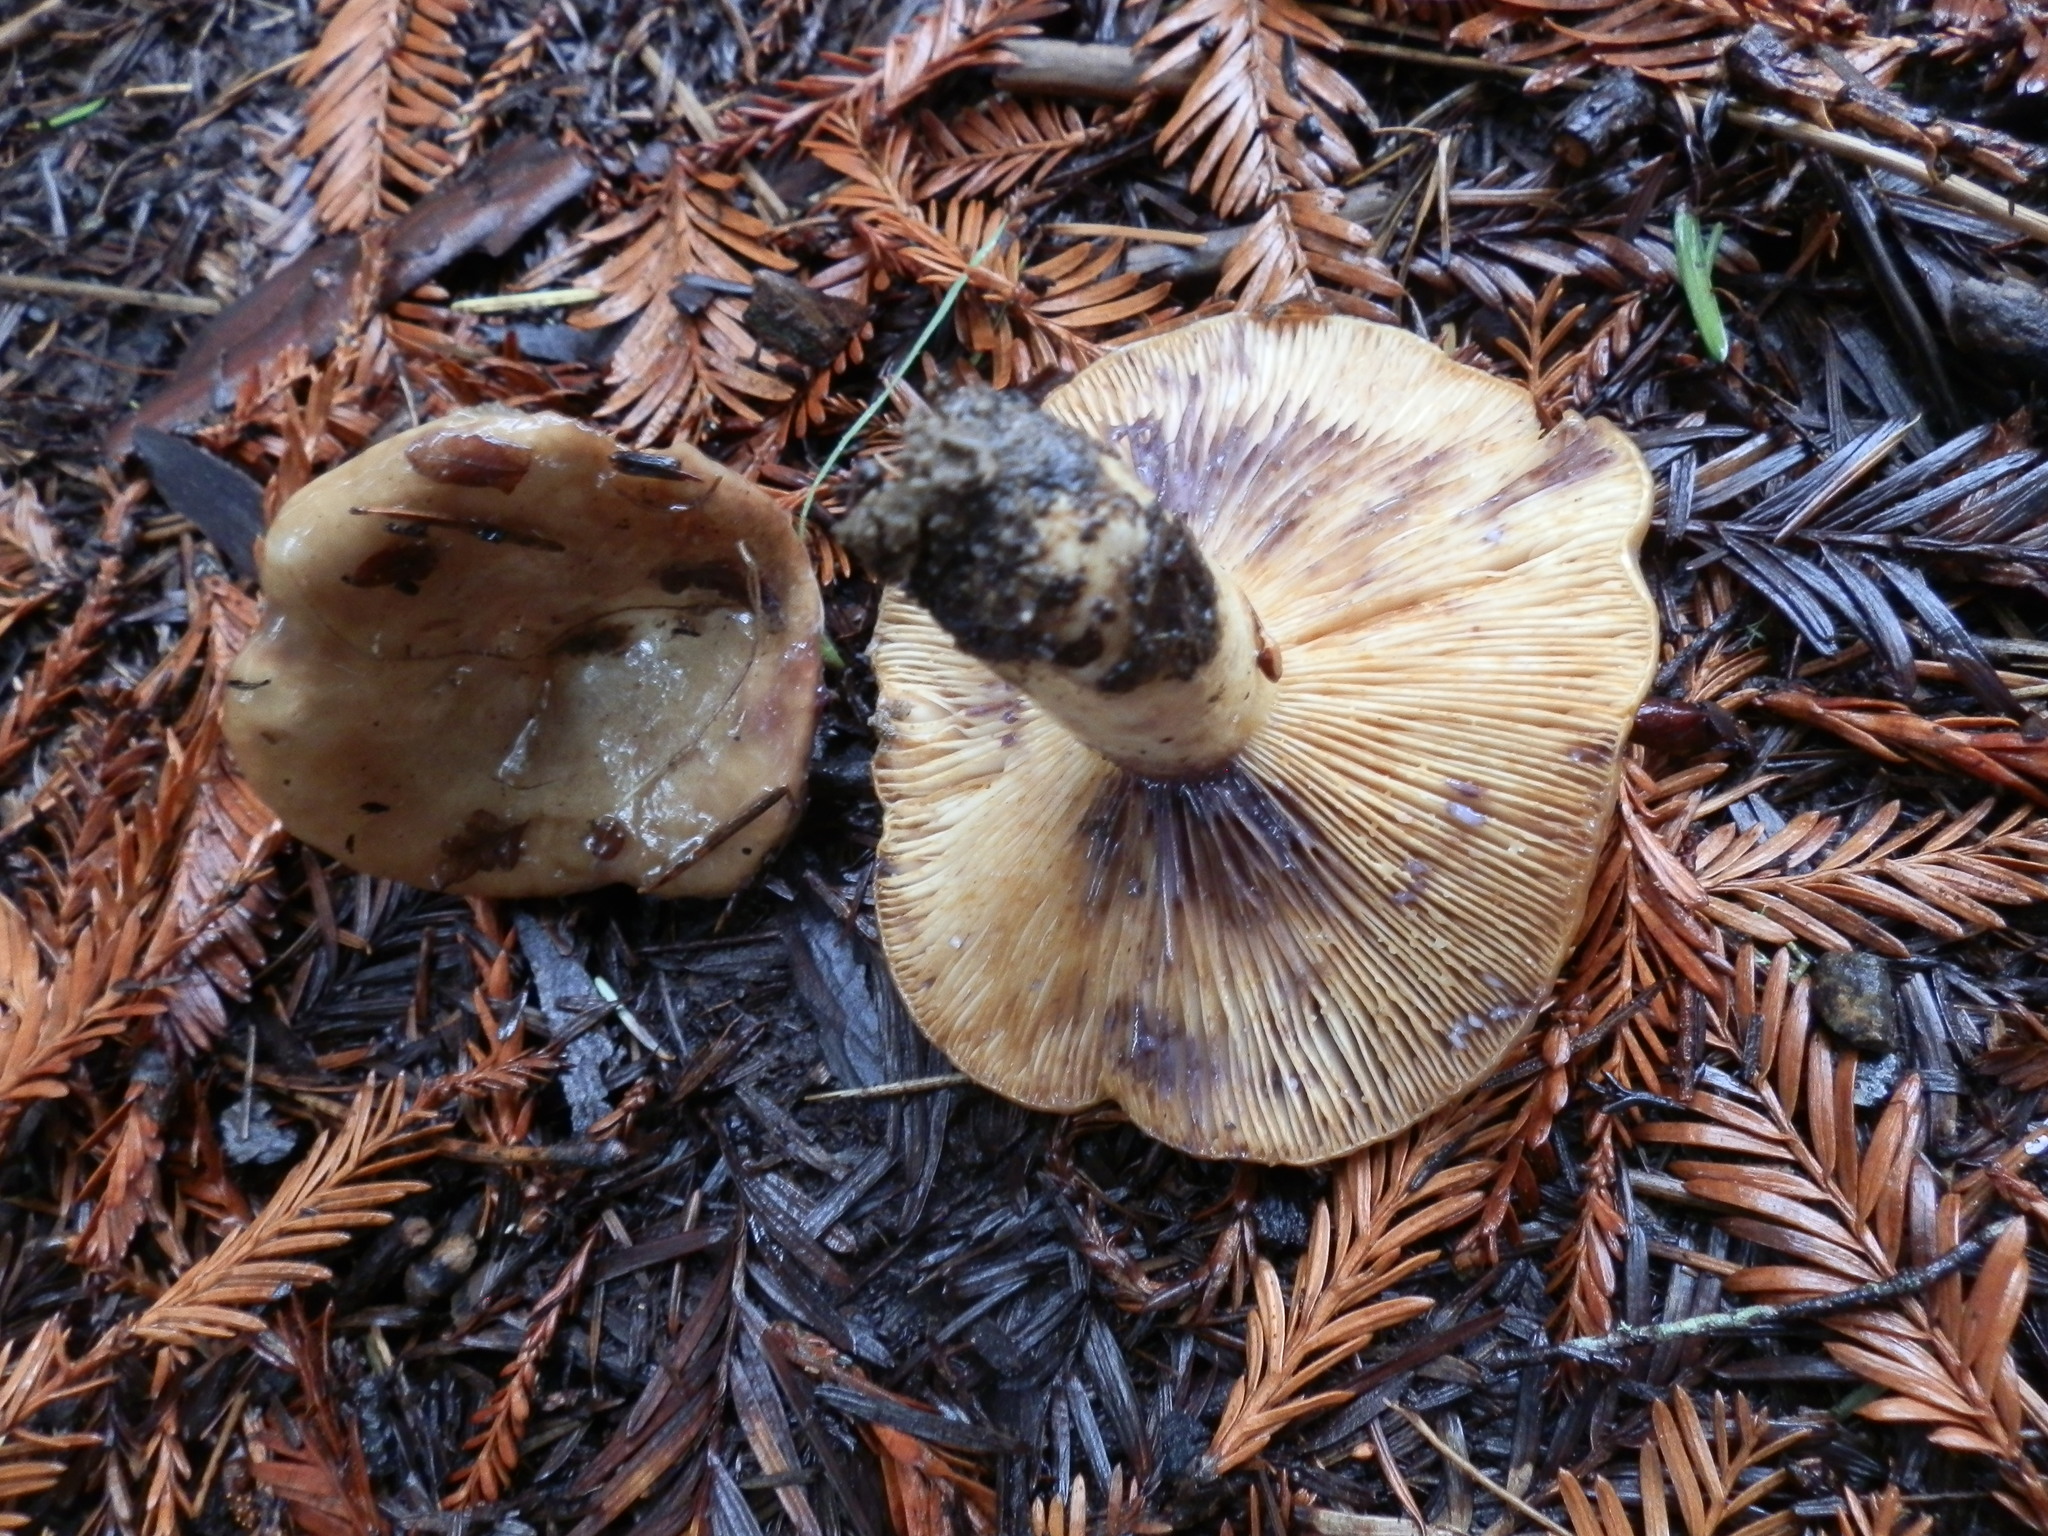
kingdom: Fungi
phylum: Basidiomycota
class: Agaricomycetes
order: Russulales
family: Russulaceae
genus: Lactarius
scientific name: Lactarius californiensis
